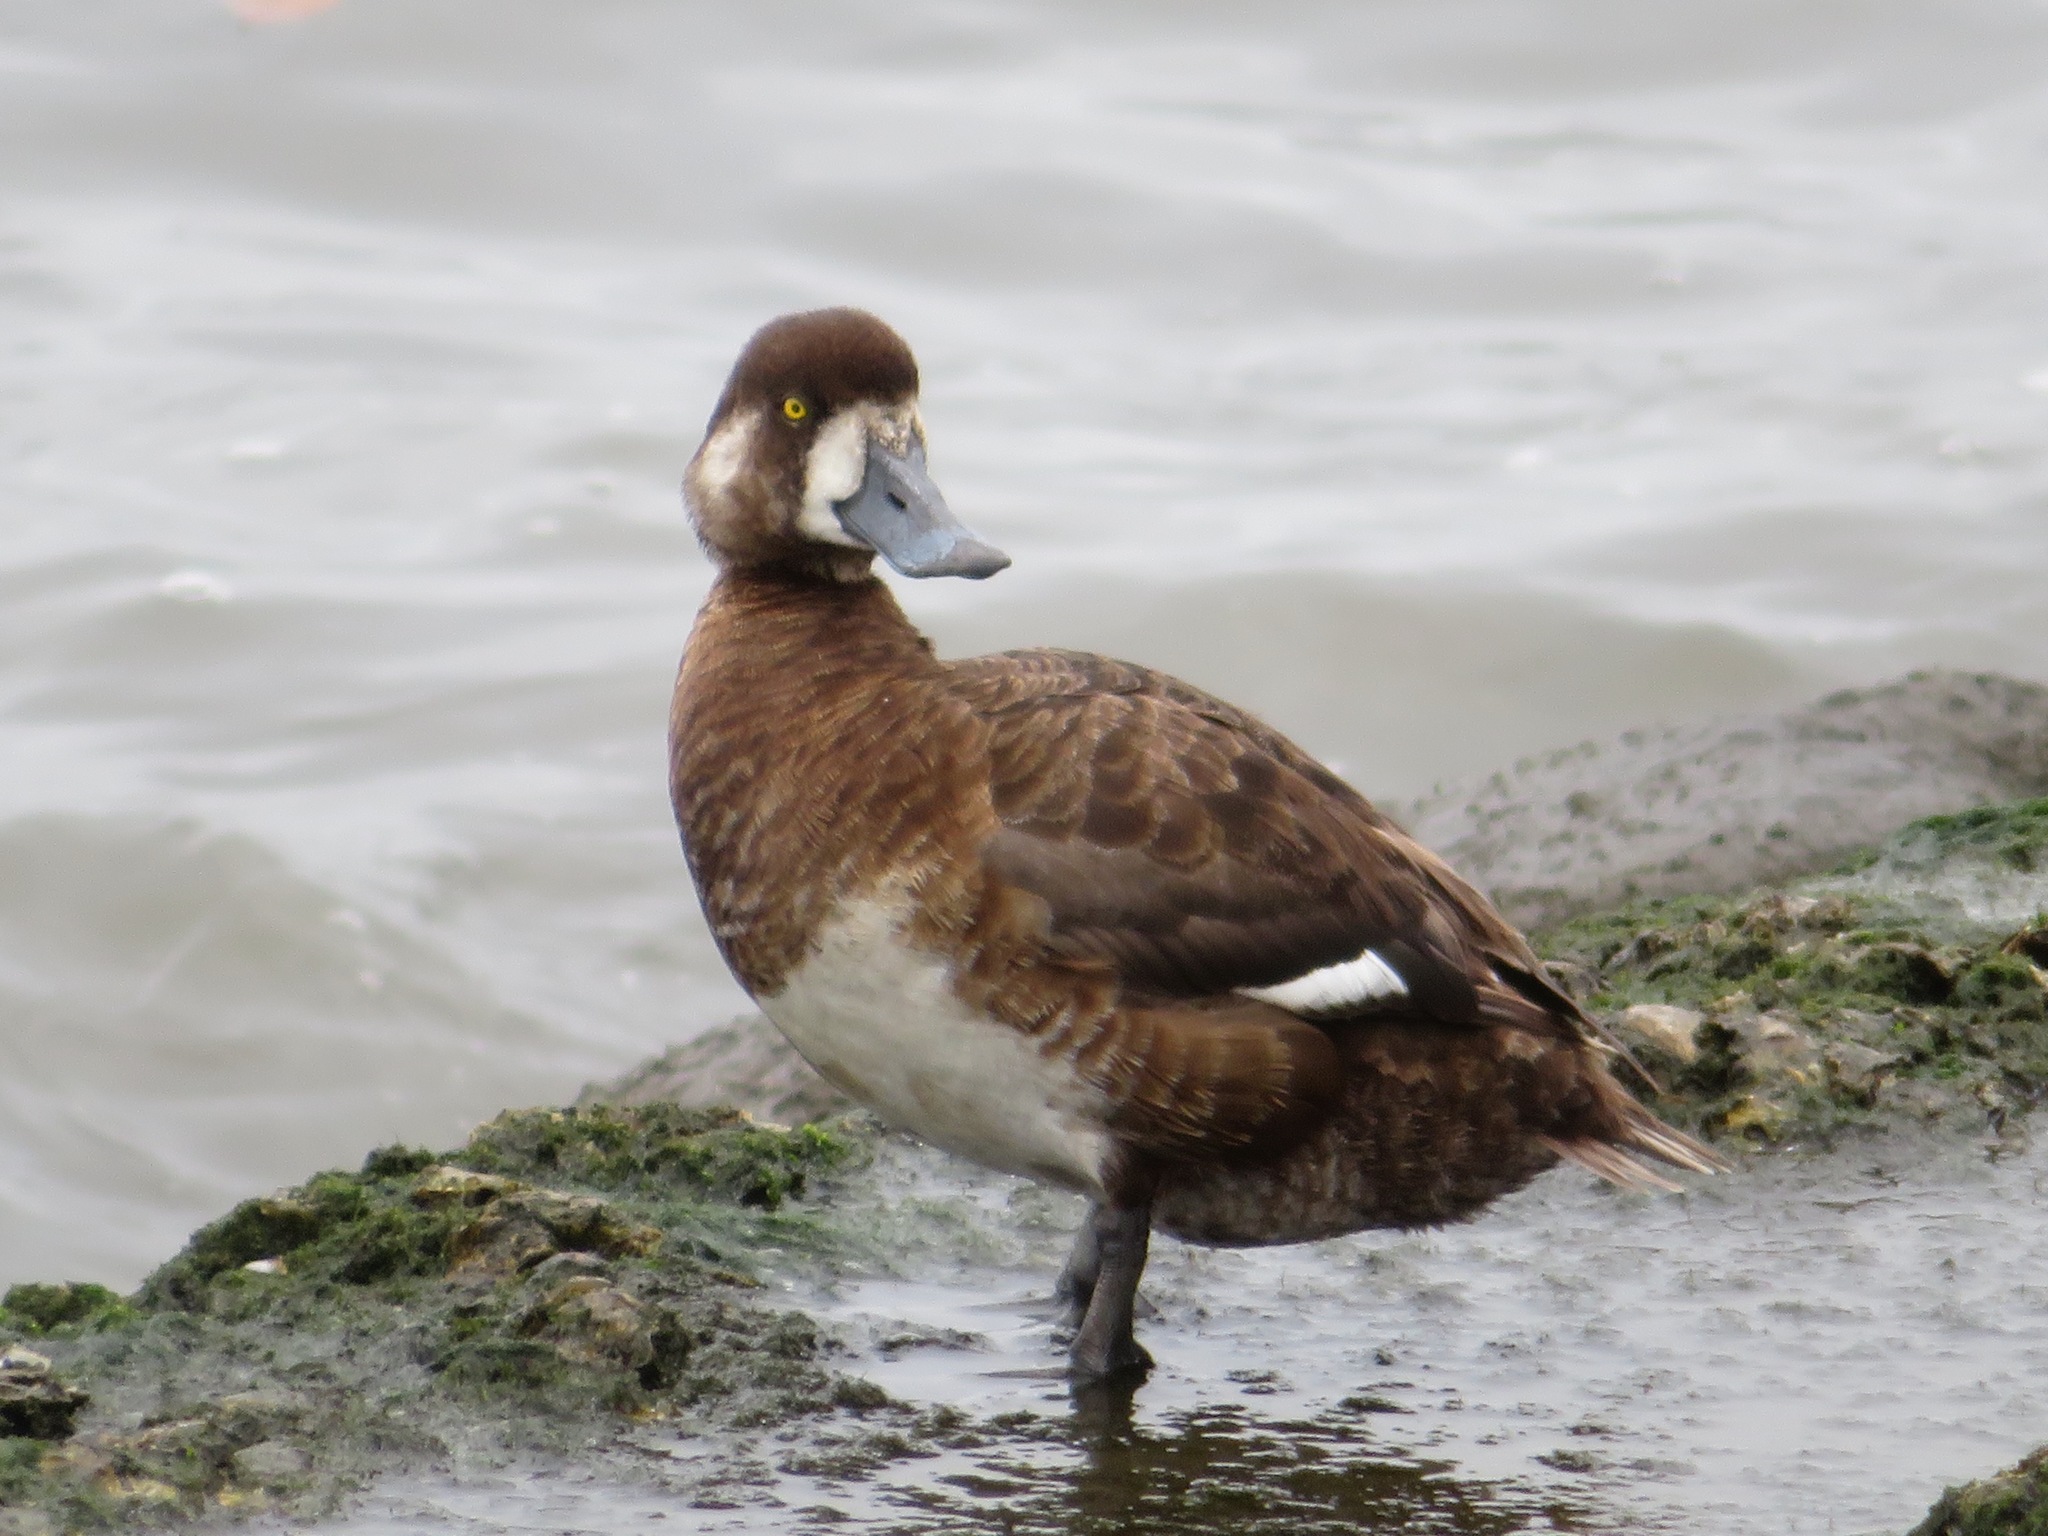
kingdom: Animalia
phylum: Chordata
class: Aves
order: Anseriformes
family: Anatidae
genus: Aythya
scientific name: Aythya marila
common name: Greater scaup
